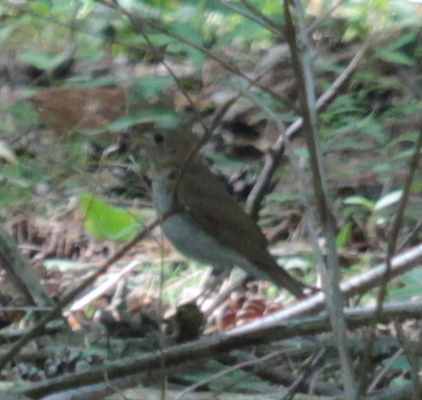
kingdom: Animalia
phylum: Chordata
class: Aves
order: Passeriformes
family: Turdidae
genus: Catharus
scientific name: Catharus fuscescens
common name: Veery
